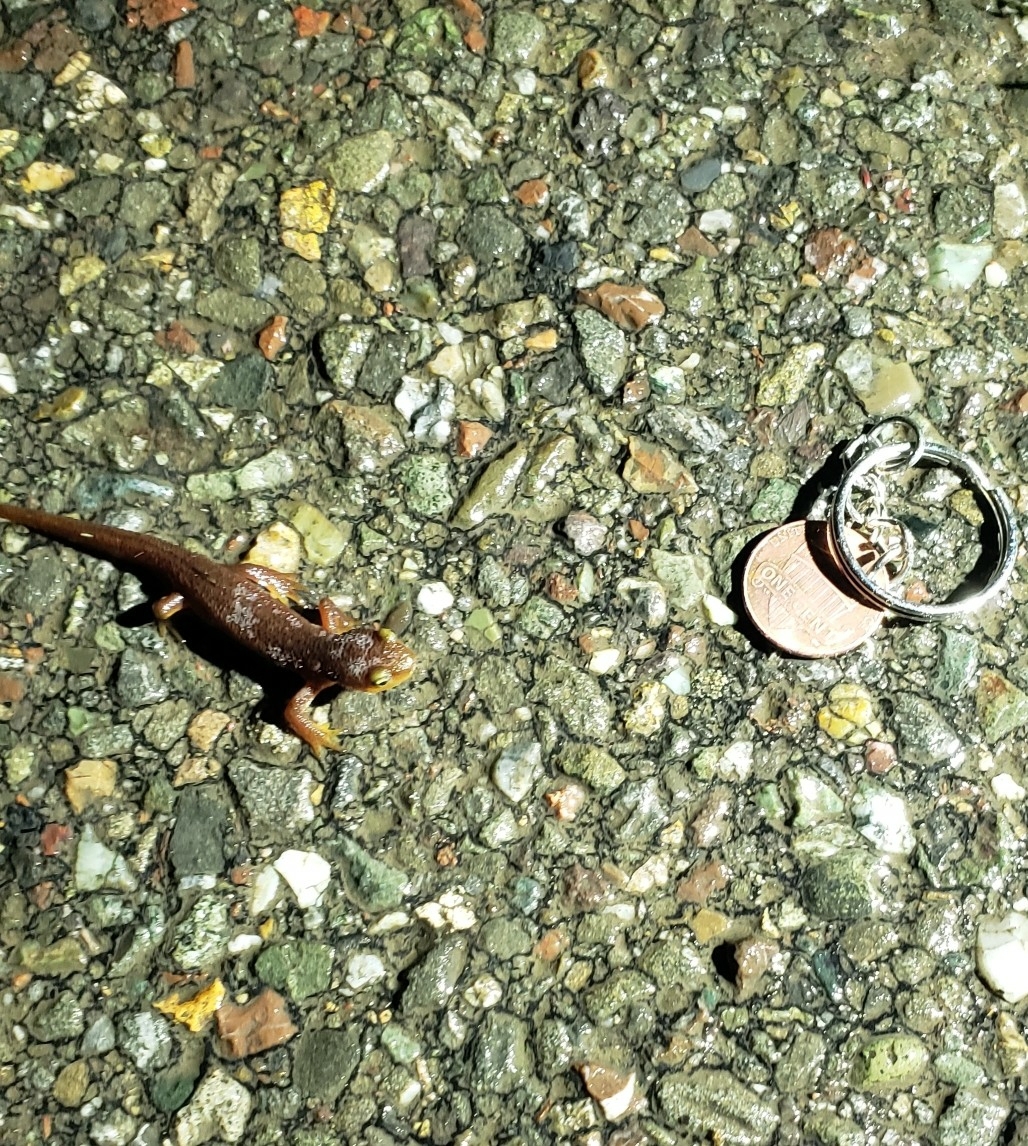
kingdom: Animalia
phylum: Chordata
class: Amphibia
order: Caudata
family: Salamandridae
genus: Taricha
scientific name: Taricha torosa
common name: California newt
